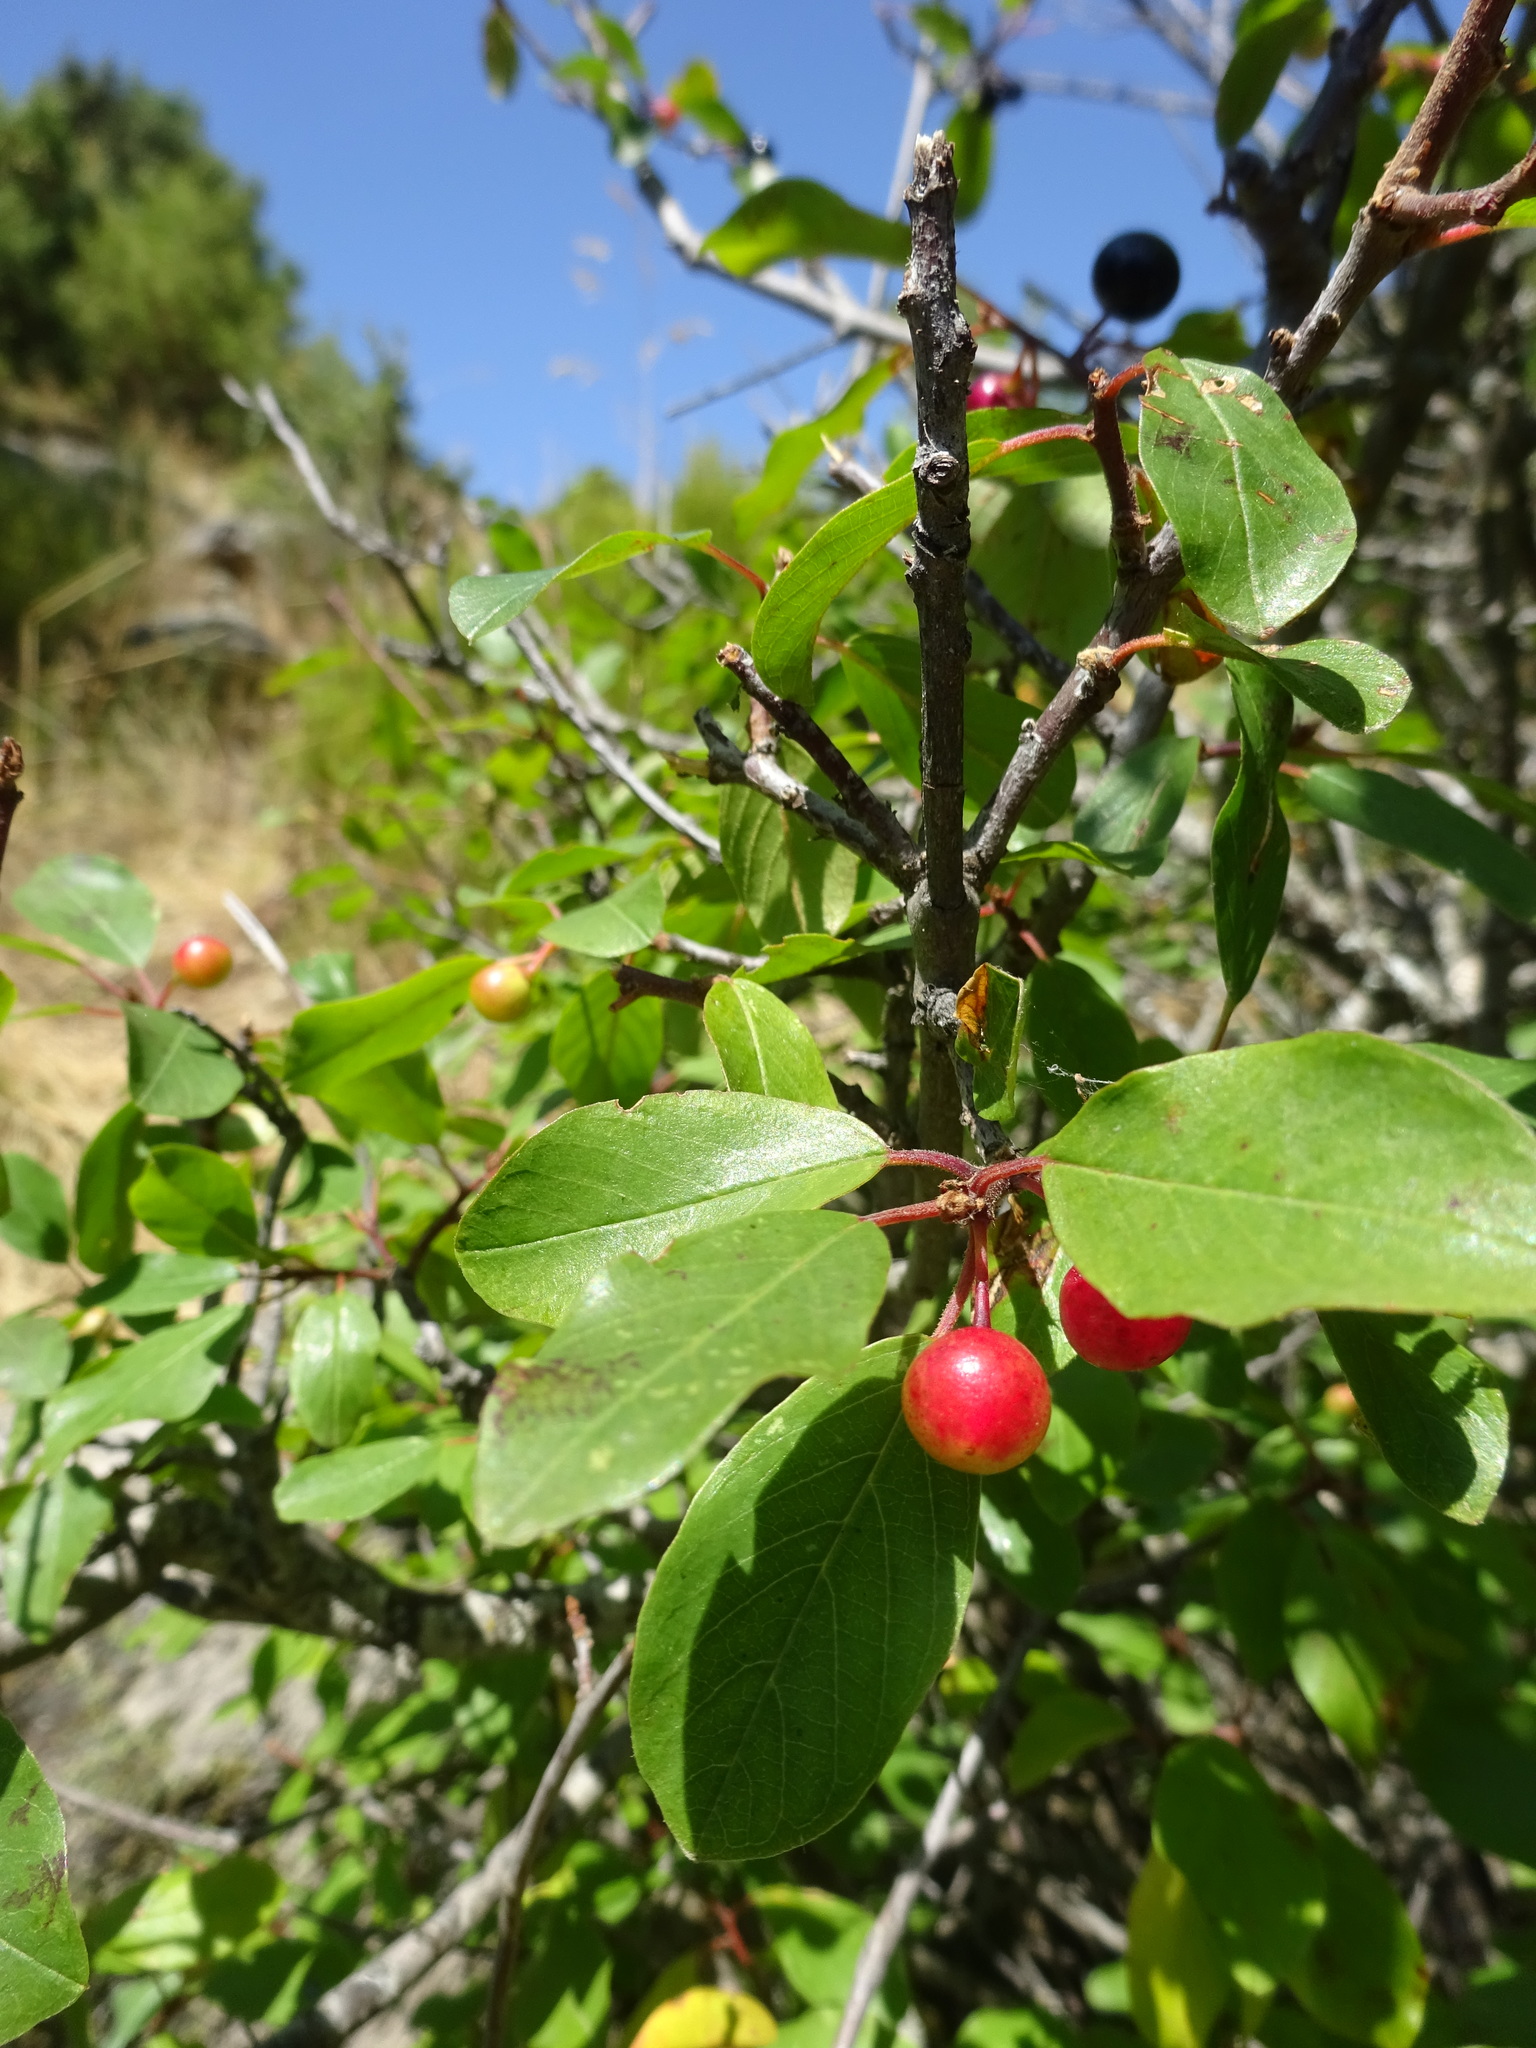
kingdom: Plantae
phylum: Tracheophyta
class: Magnoliopsida
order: Rosales
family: Rhamnaceae
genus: Frangula
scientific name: Frangula alnus
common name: Alder buckthorn
